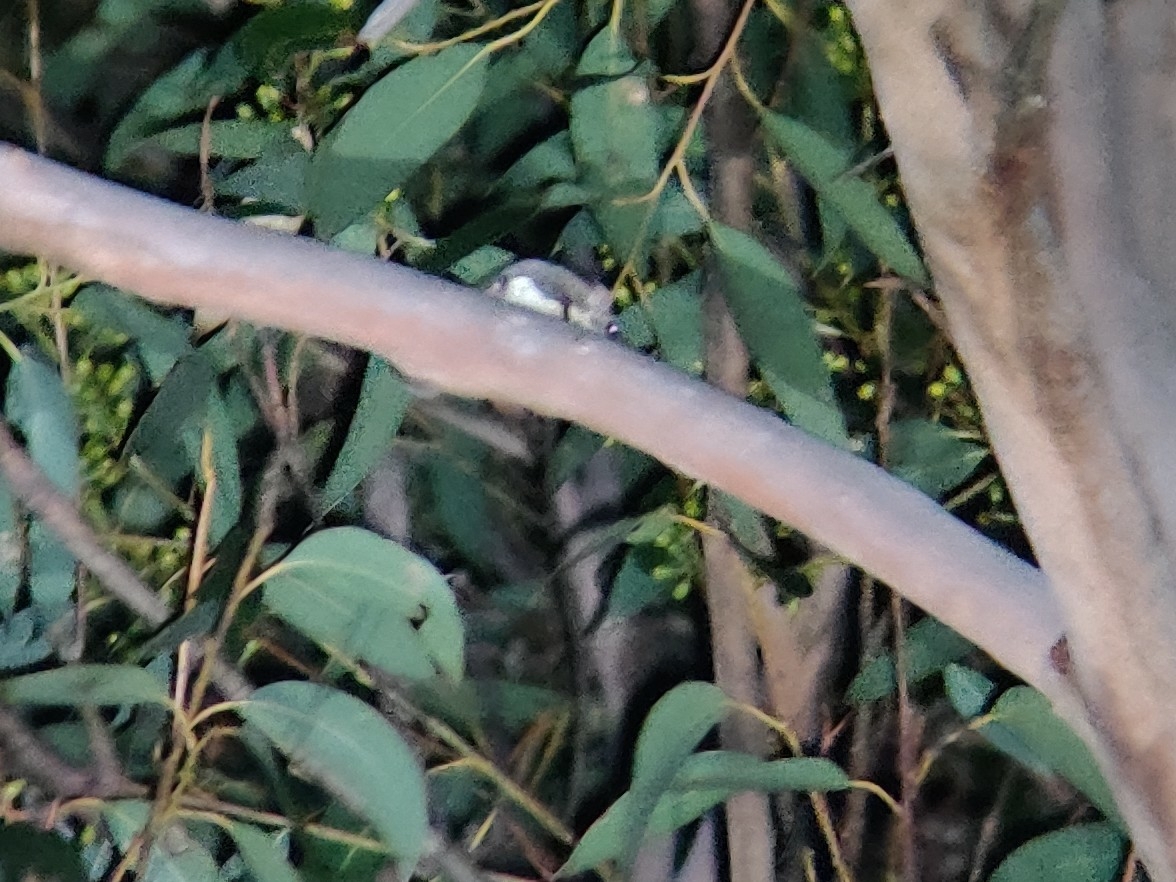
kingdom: Animalia
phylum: Chordata
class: Mammalia
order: Diprotodontia
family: Acrobatidae
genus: Acrobates
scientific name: Acrobates pygmaeus
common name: Feathertail glider
